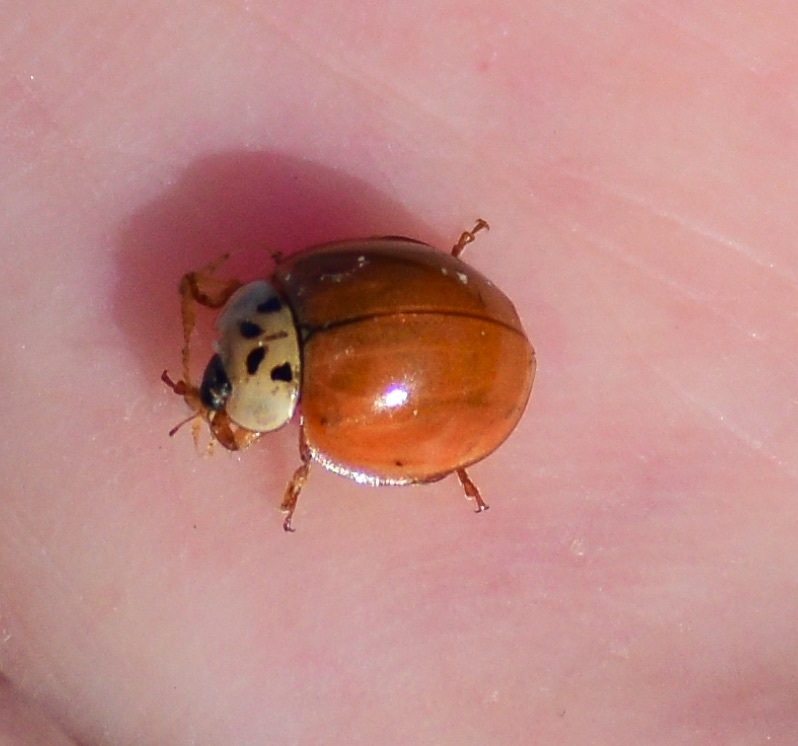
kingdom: Animalia
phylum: Arthropoda
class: Insecta
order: Coleoptera
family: Coccinellidae
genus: Harmonia
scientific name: Harmonia axyridis
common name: Harlequin ladybird
